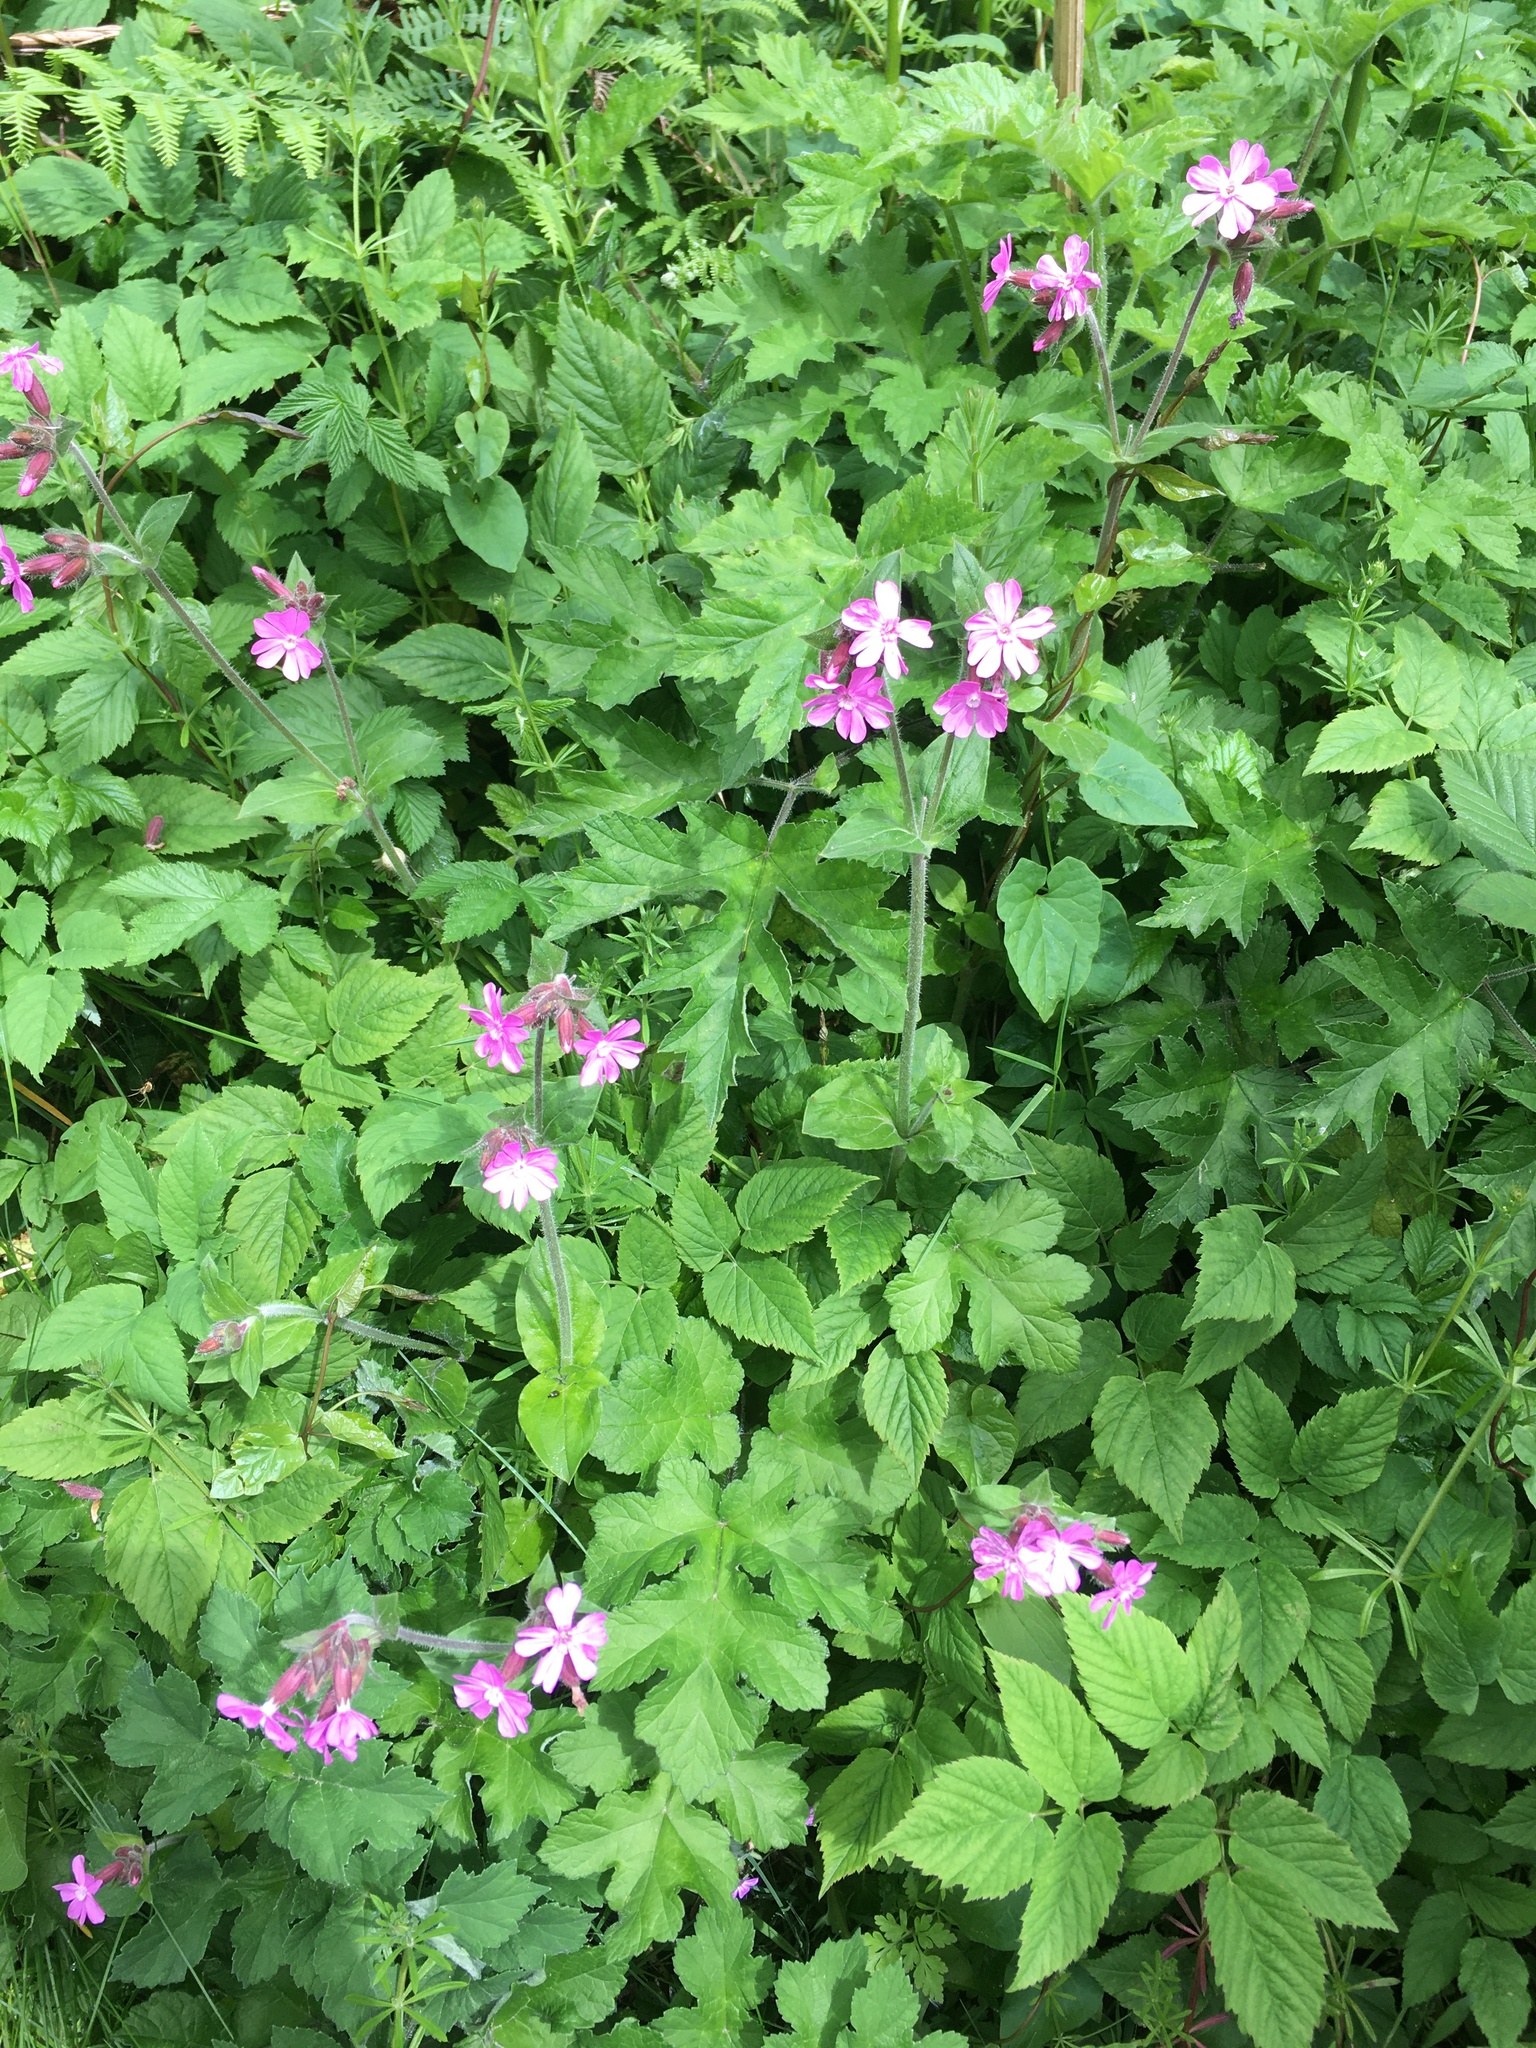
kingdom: Plantae
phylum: Tracheophyta
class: Magnoliopsida
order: Caryophyllales
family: Caryophyllaceae
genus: Silene
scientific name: Silene dioica
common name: Red campion
